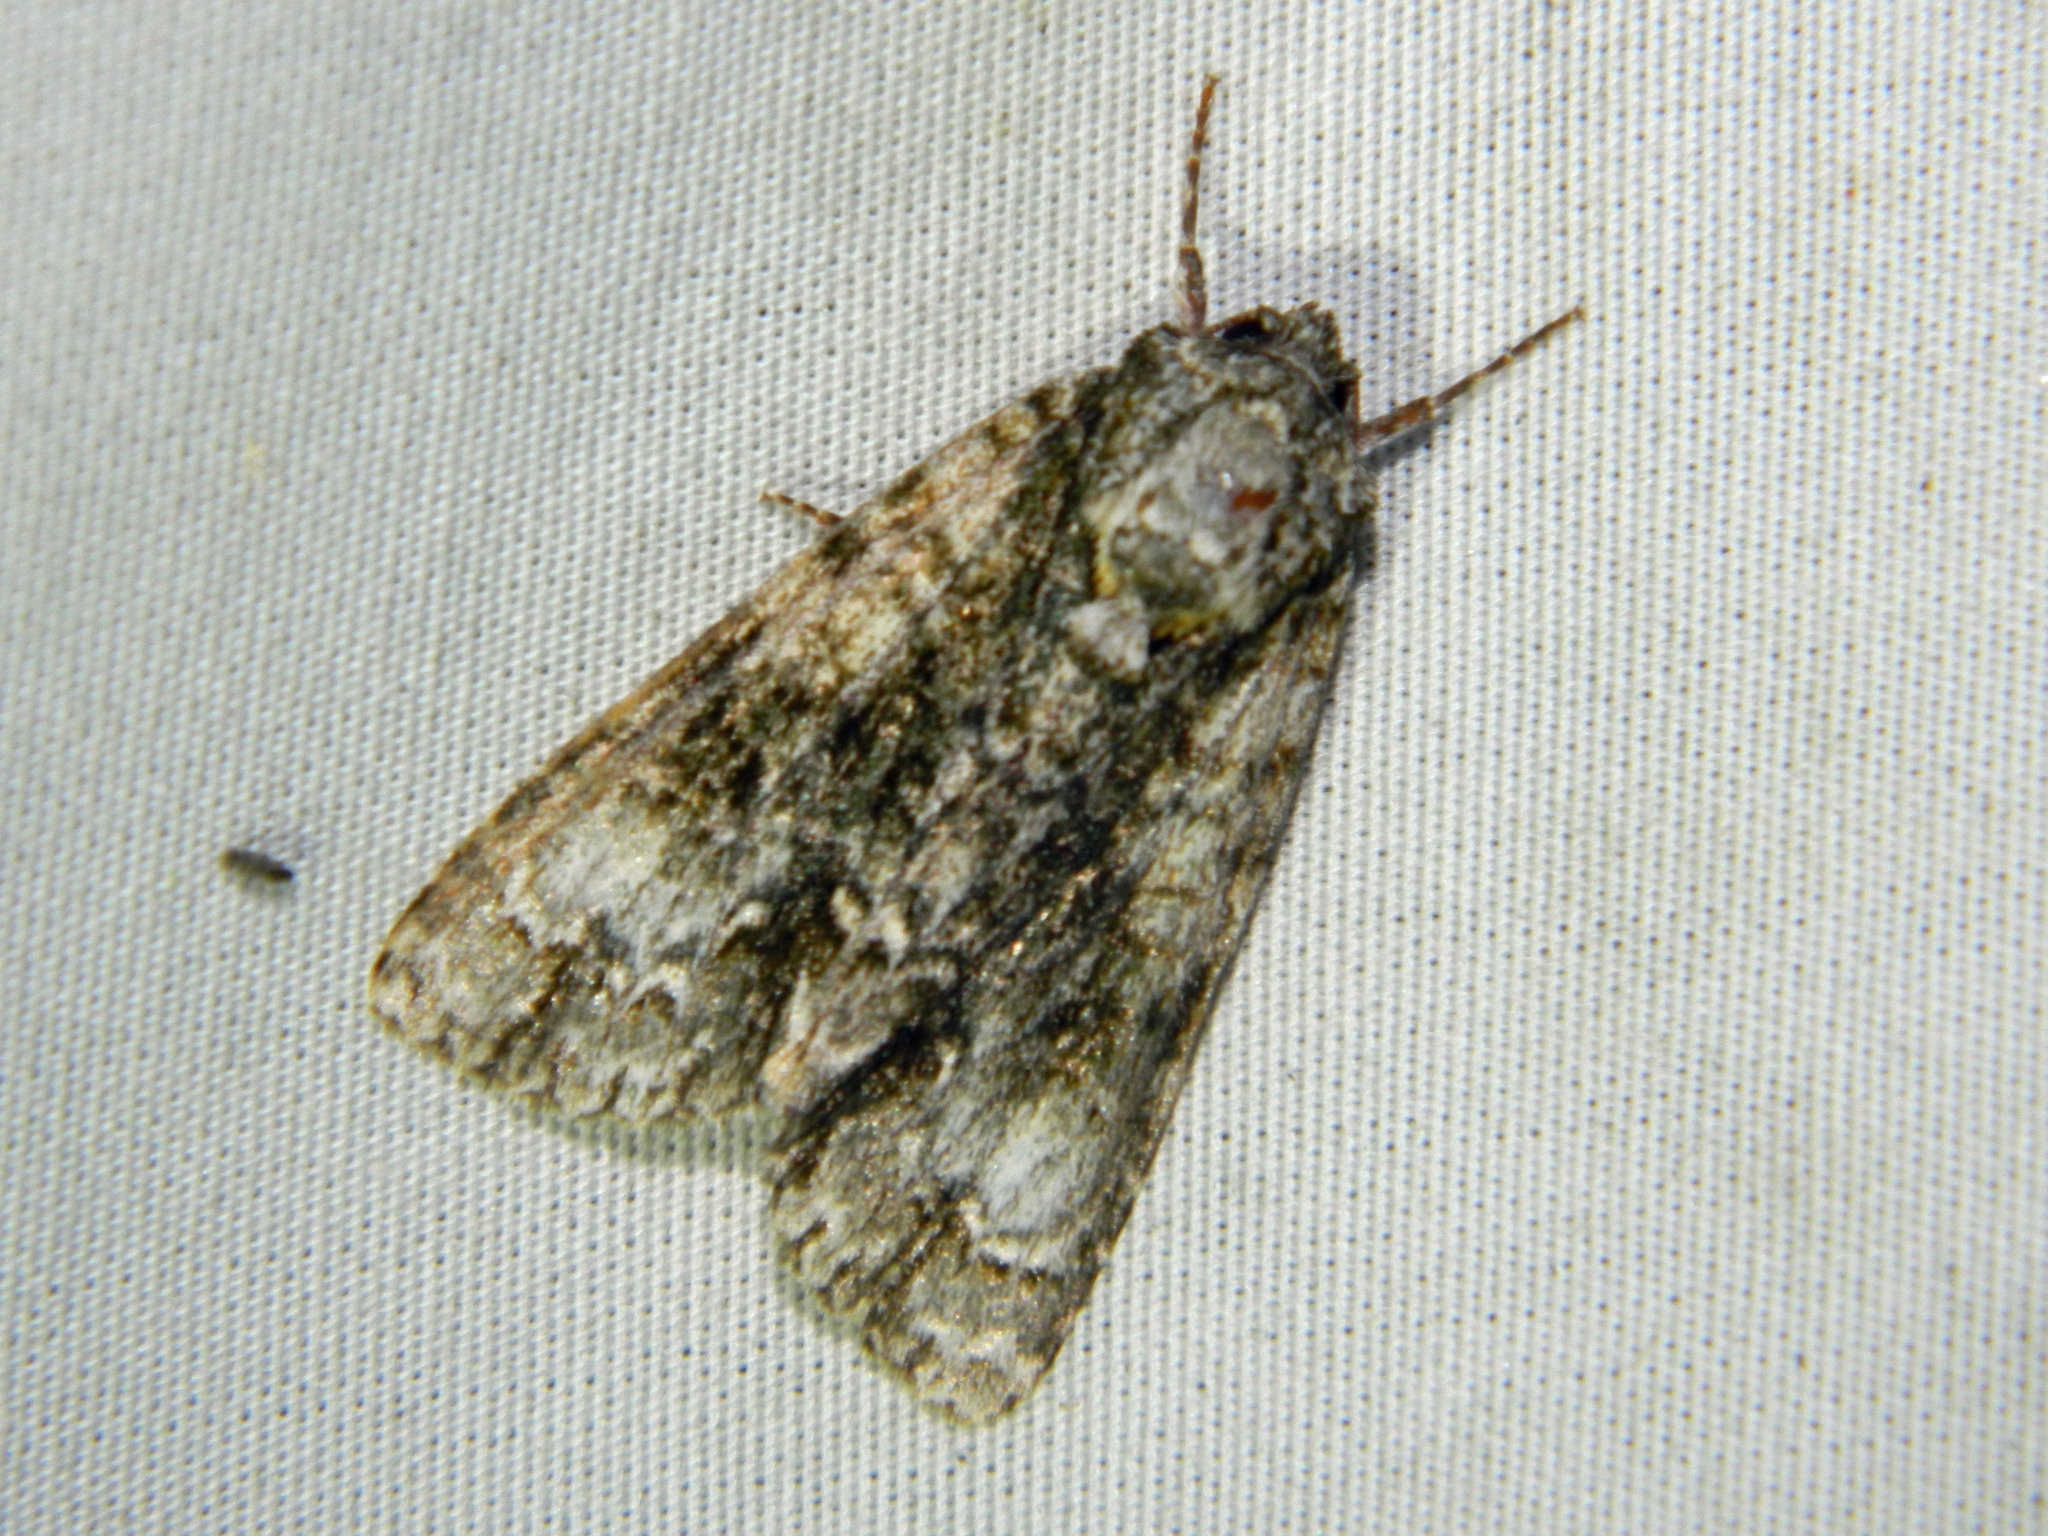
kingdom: Animalia
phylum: Arthropoda
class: Insecta
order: Lepidoptera
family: Noctuidae
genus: Acronicta
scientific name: Acronicta superans
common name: Splendid dagger
